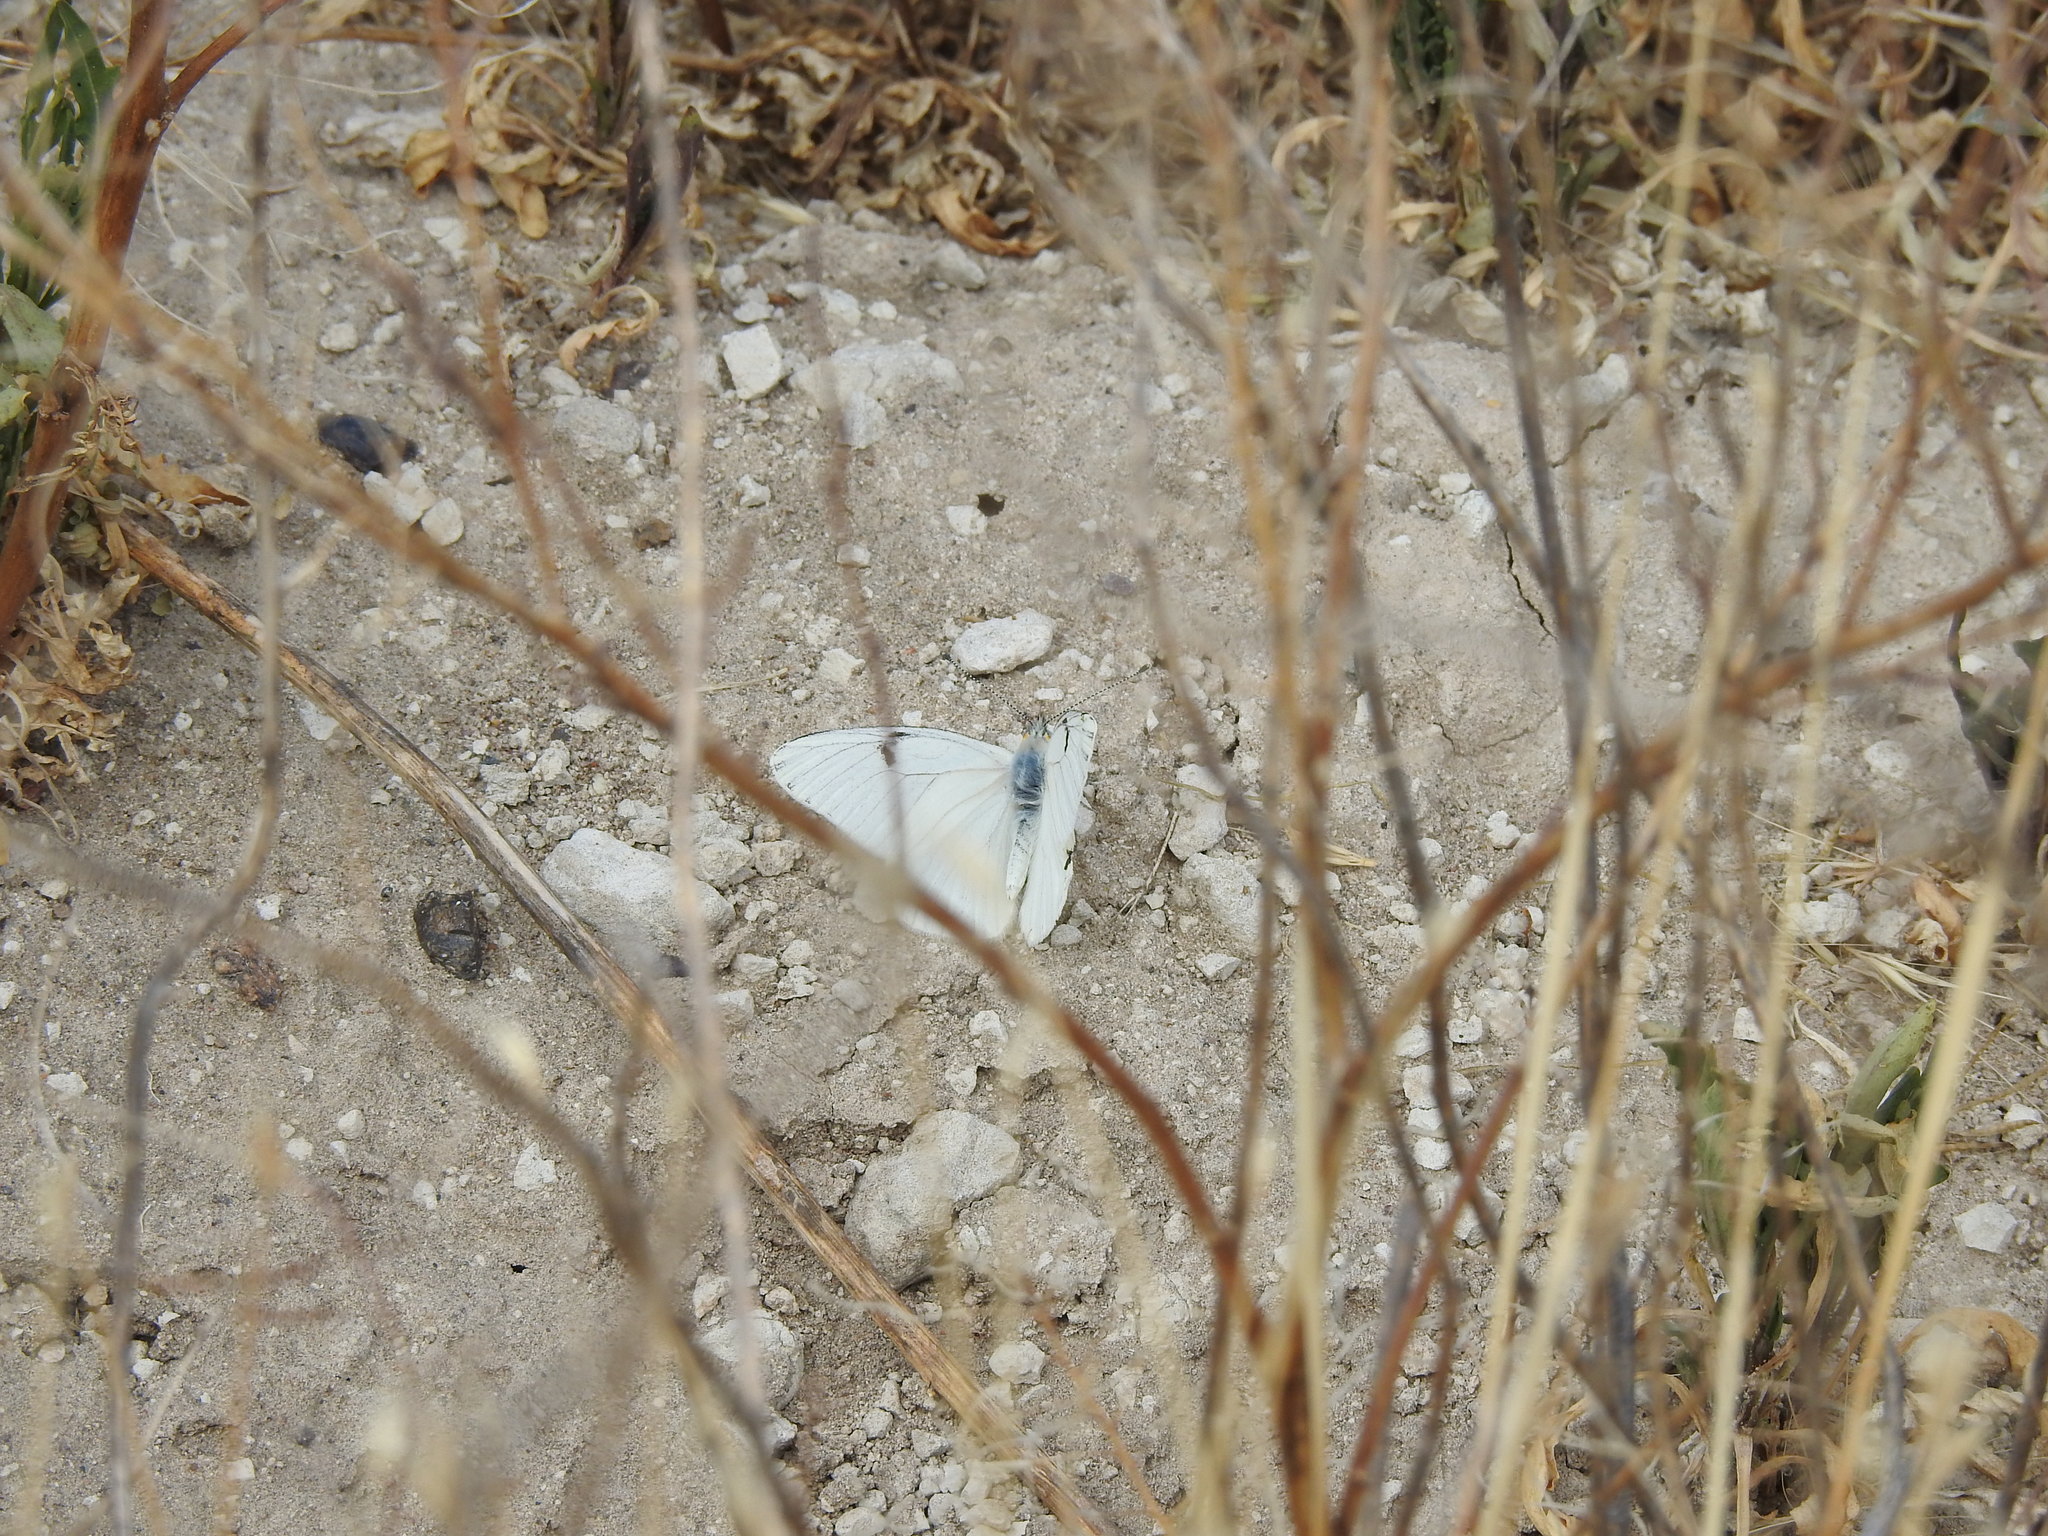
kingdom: Animalia
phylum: Arthropoda
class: Insecta
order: Lepidoptera
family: Pieridae
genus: Tatochila
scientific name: Tatochila mercedis
